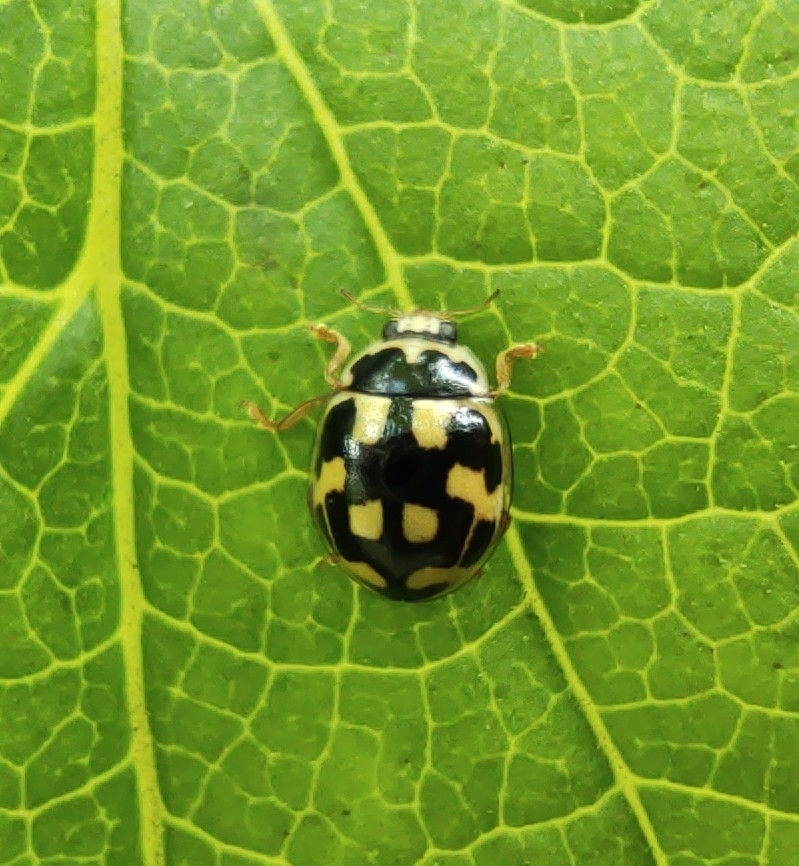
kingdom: Animalia
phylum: Arthropoda
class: Insecta
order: Coleoptera
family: Coccinellidae
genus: Propylaea
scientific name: Propylaea quatuordecimpunctata
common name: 14-spotted ladybird beetle
